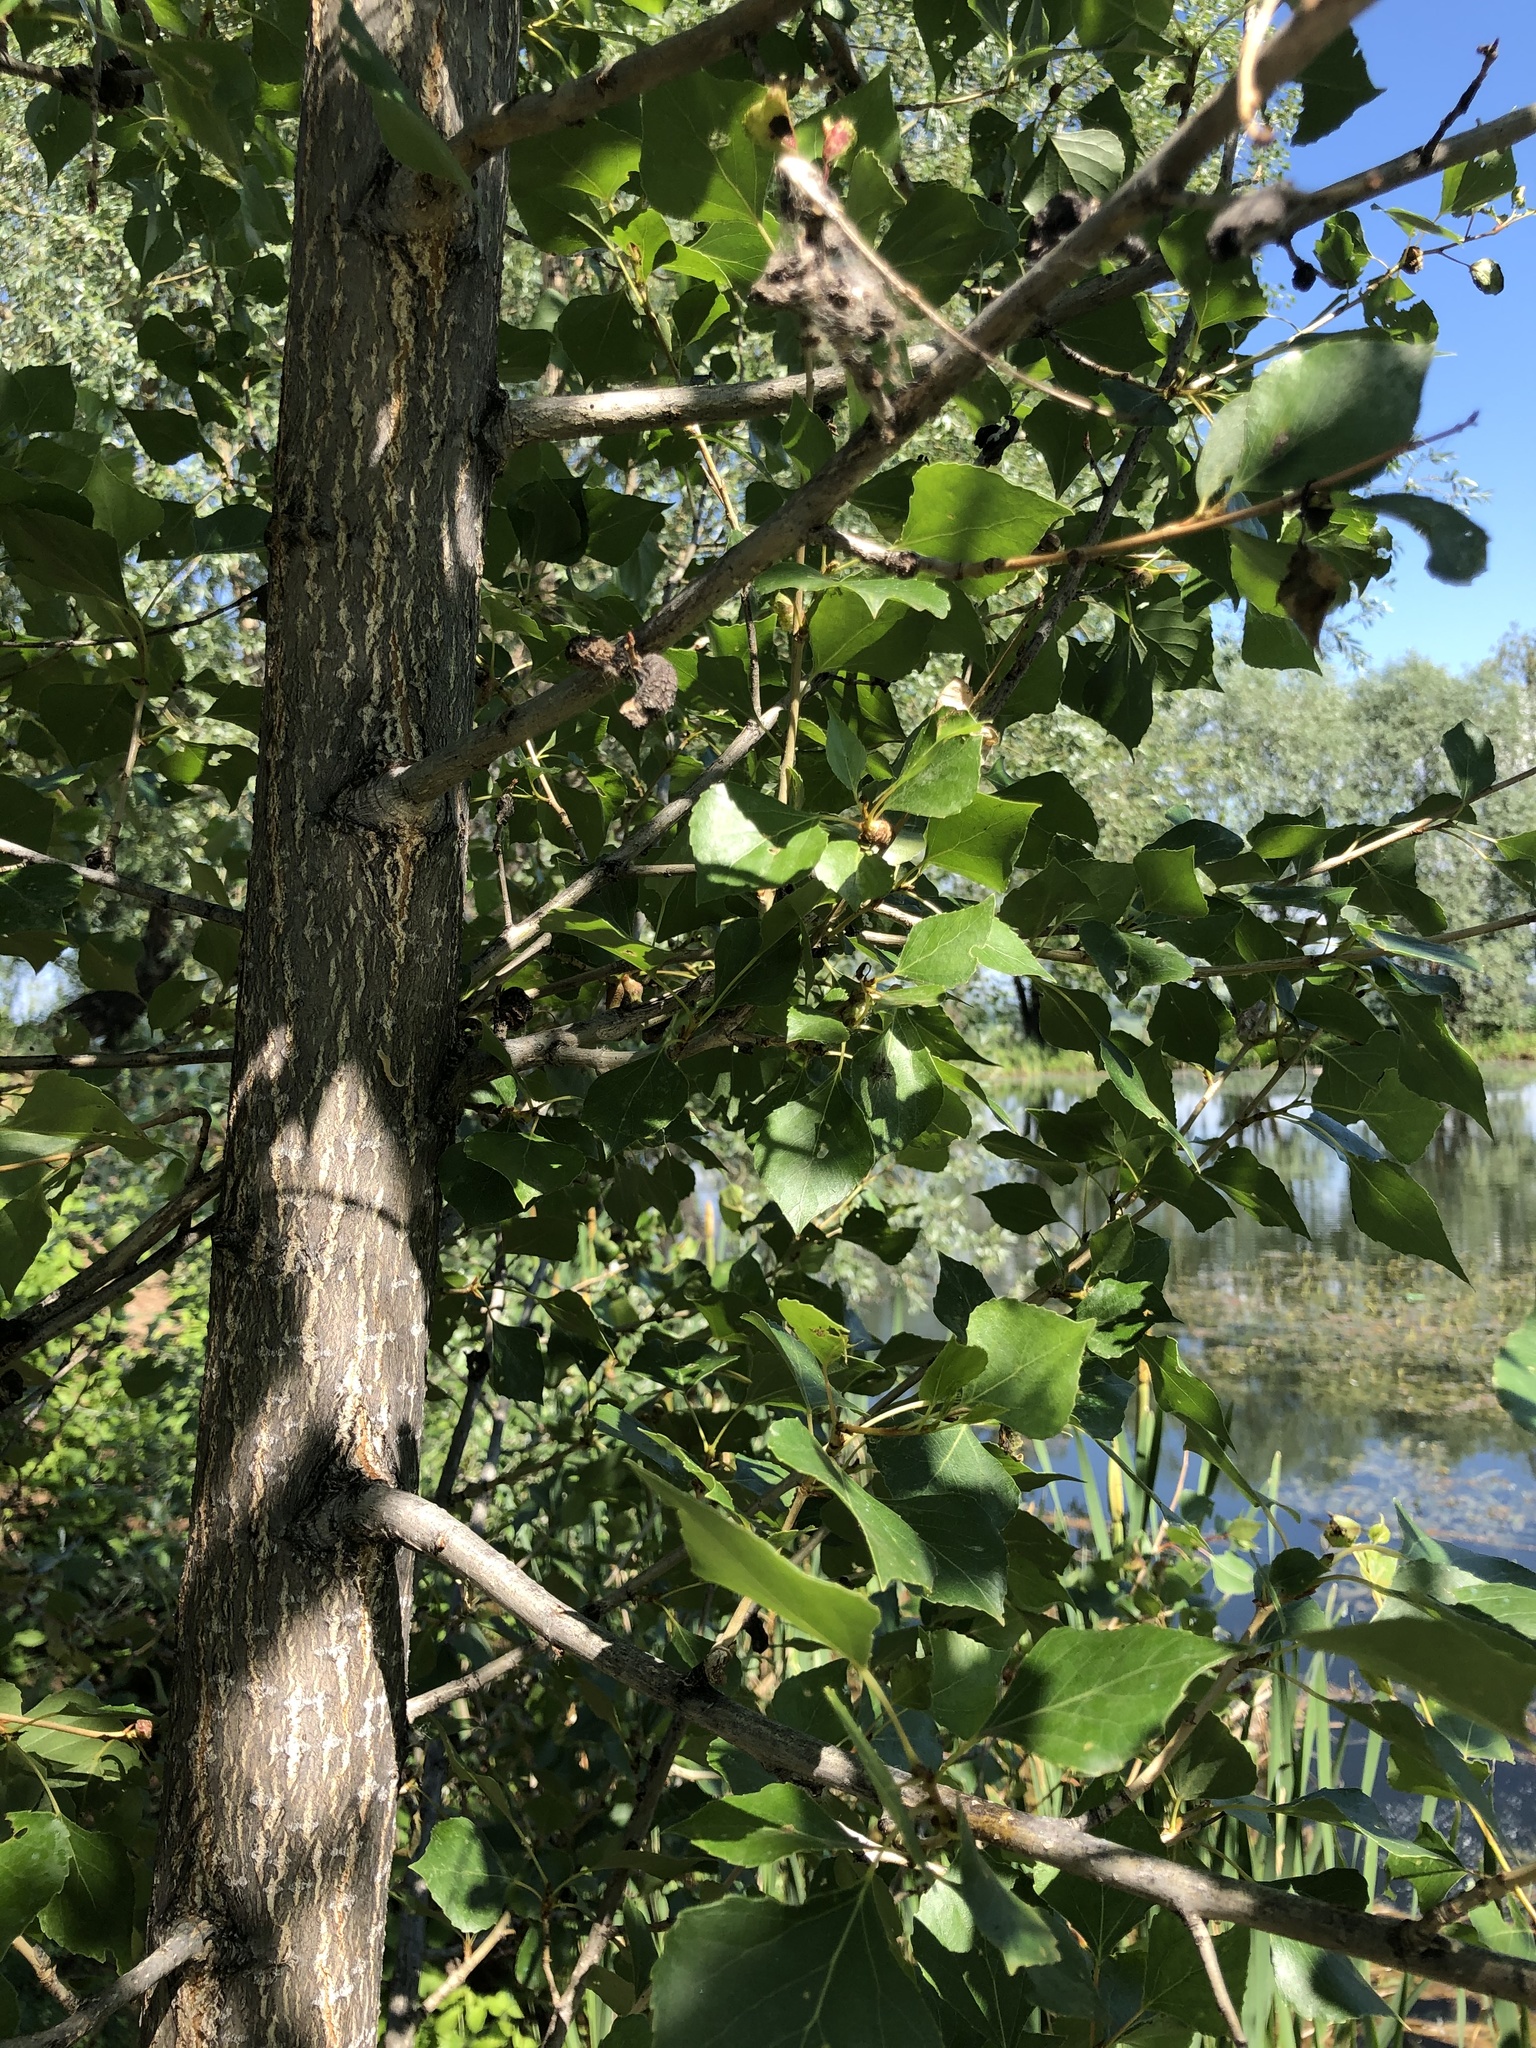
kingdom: Plantae
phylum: Tracheophyta
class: Magnoliopsida
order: Malpighiales
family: Salicaceae
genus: Populus
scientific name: Populus nigra
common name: Black poplar
